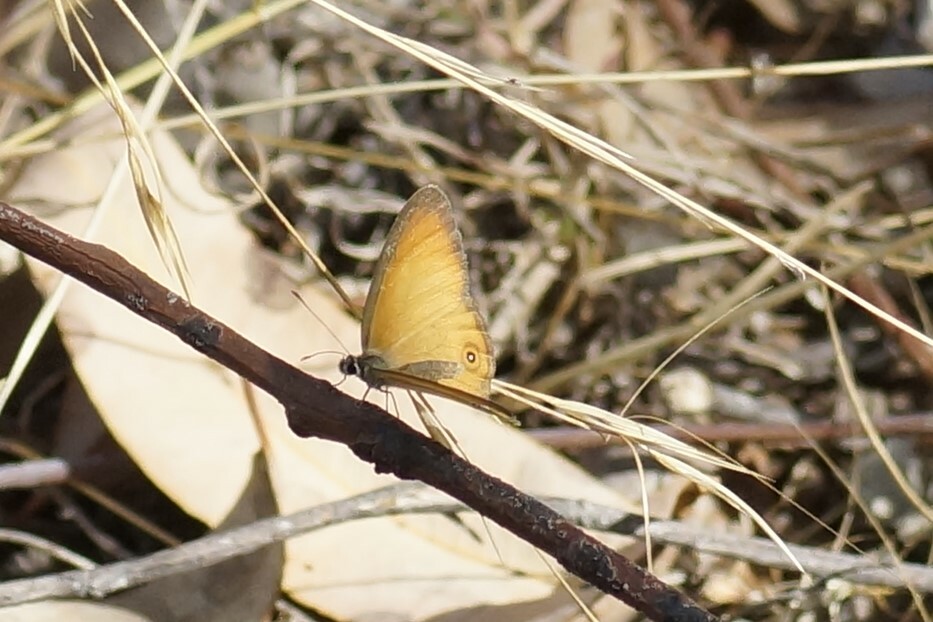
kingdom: Animalia
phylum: Arthropoda
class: Insecta
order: Lepidoptera
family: Nymphalidae
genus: Hypocysta
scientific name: Hypocysta adiante
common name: Orange ringlet
